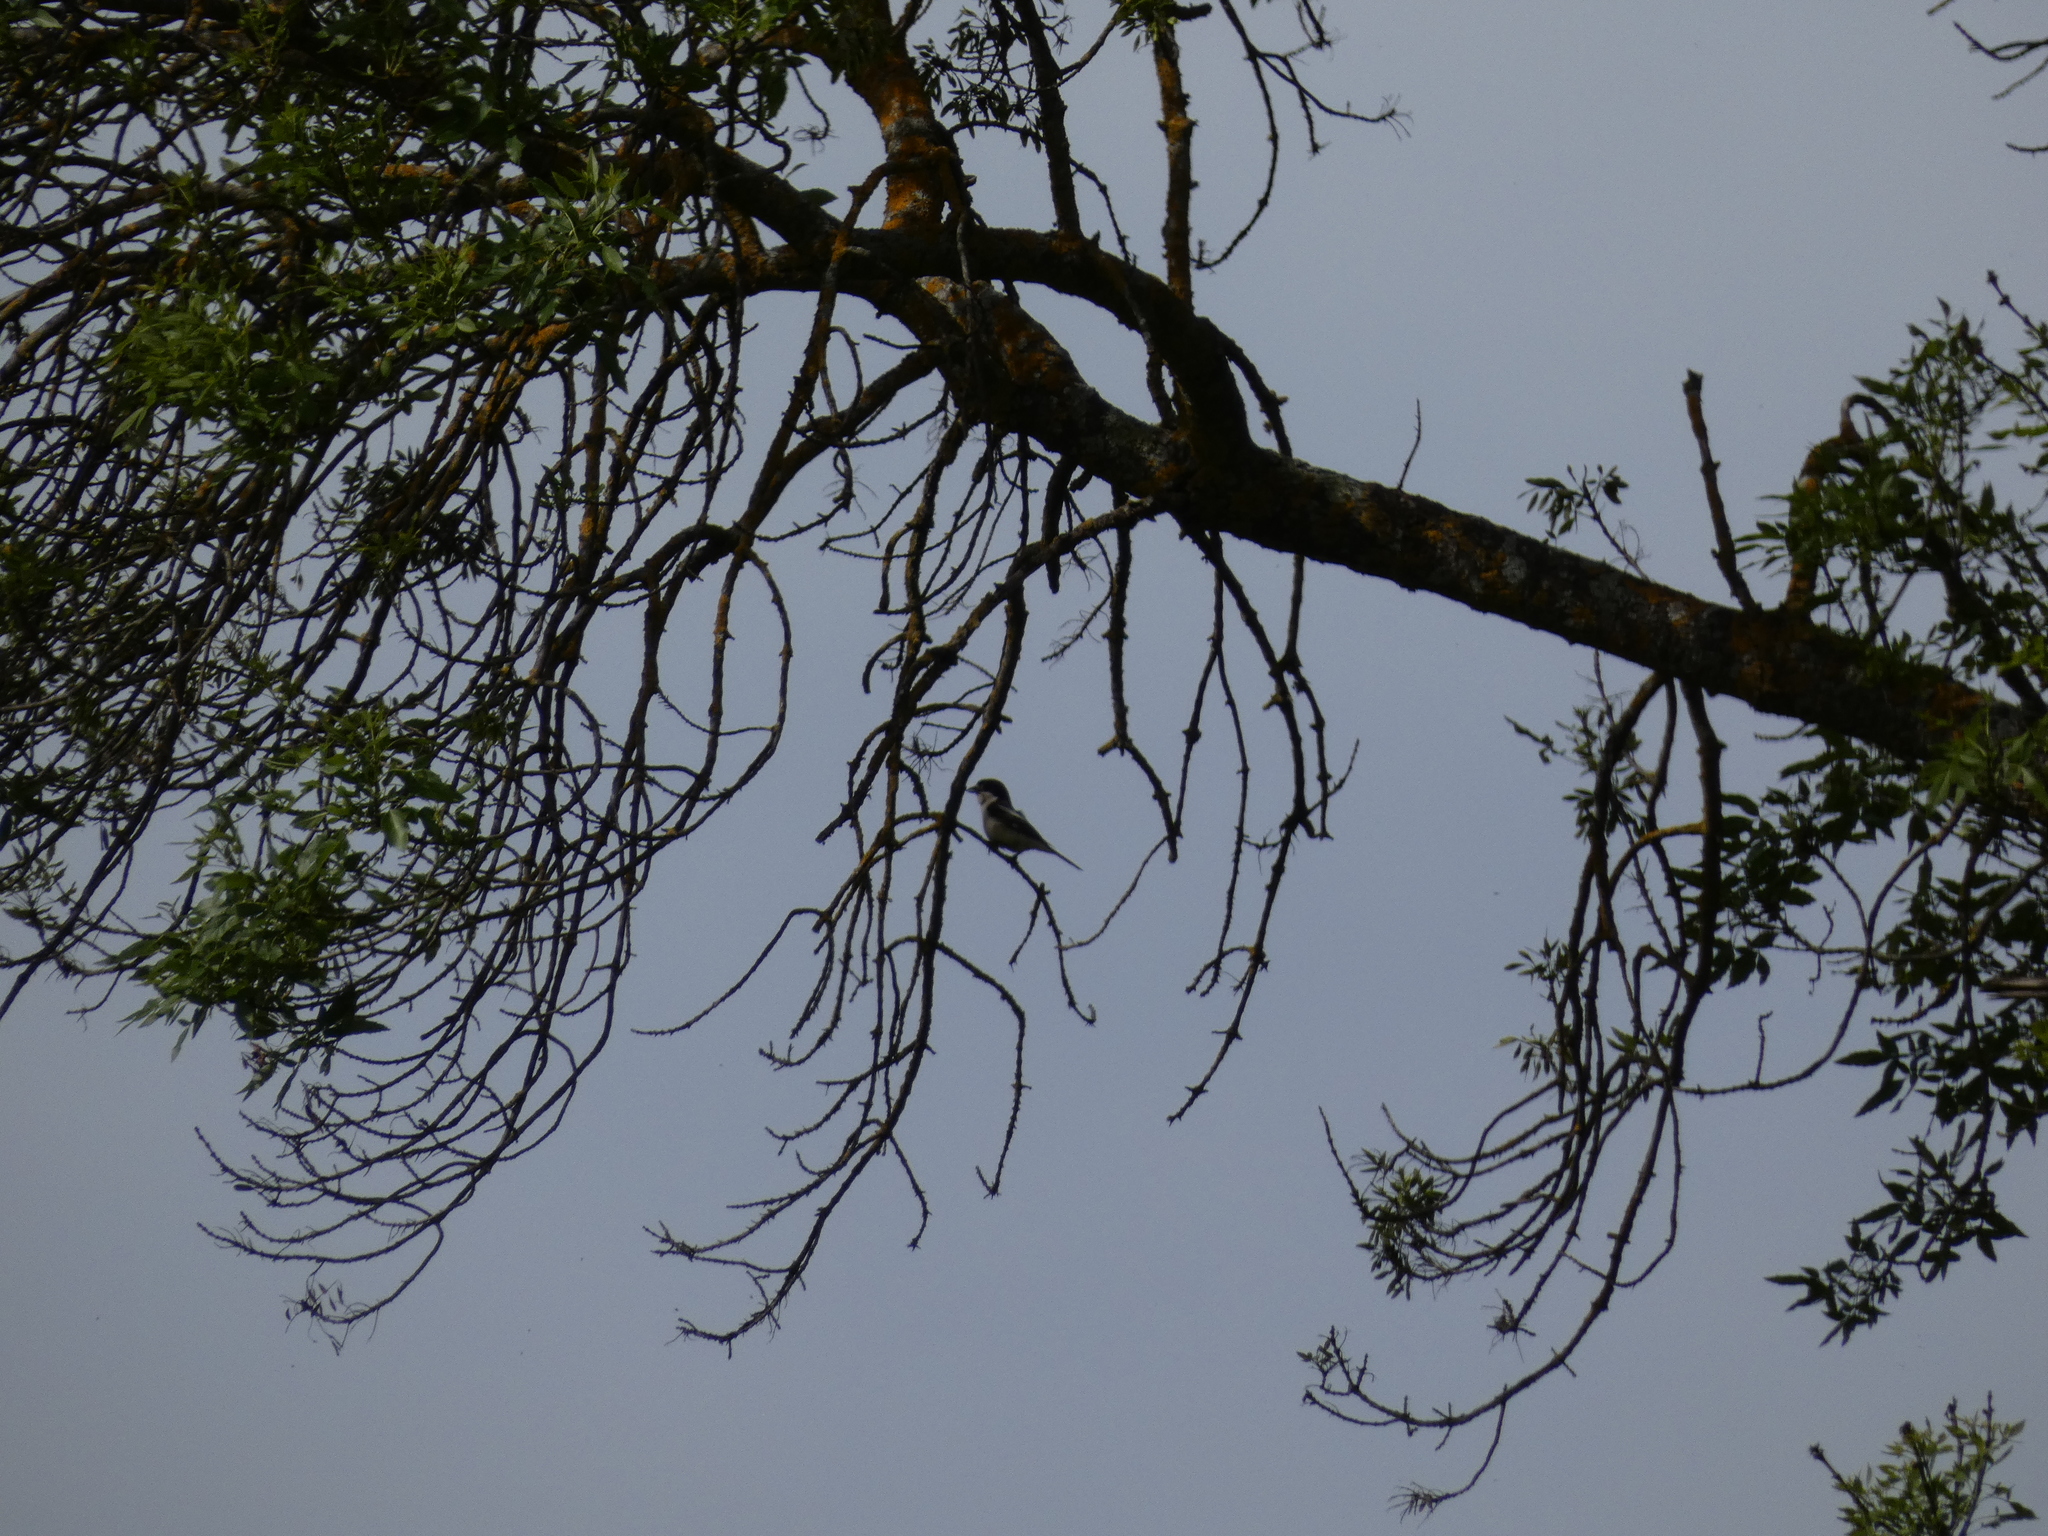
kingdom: Animalia
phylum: Chordata
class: Aves
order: Passeriformes
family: Laniidae
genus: Lanius
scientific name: Lanius senator
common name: Woodchat shrike
